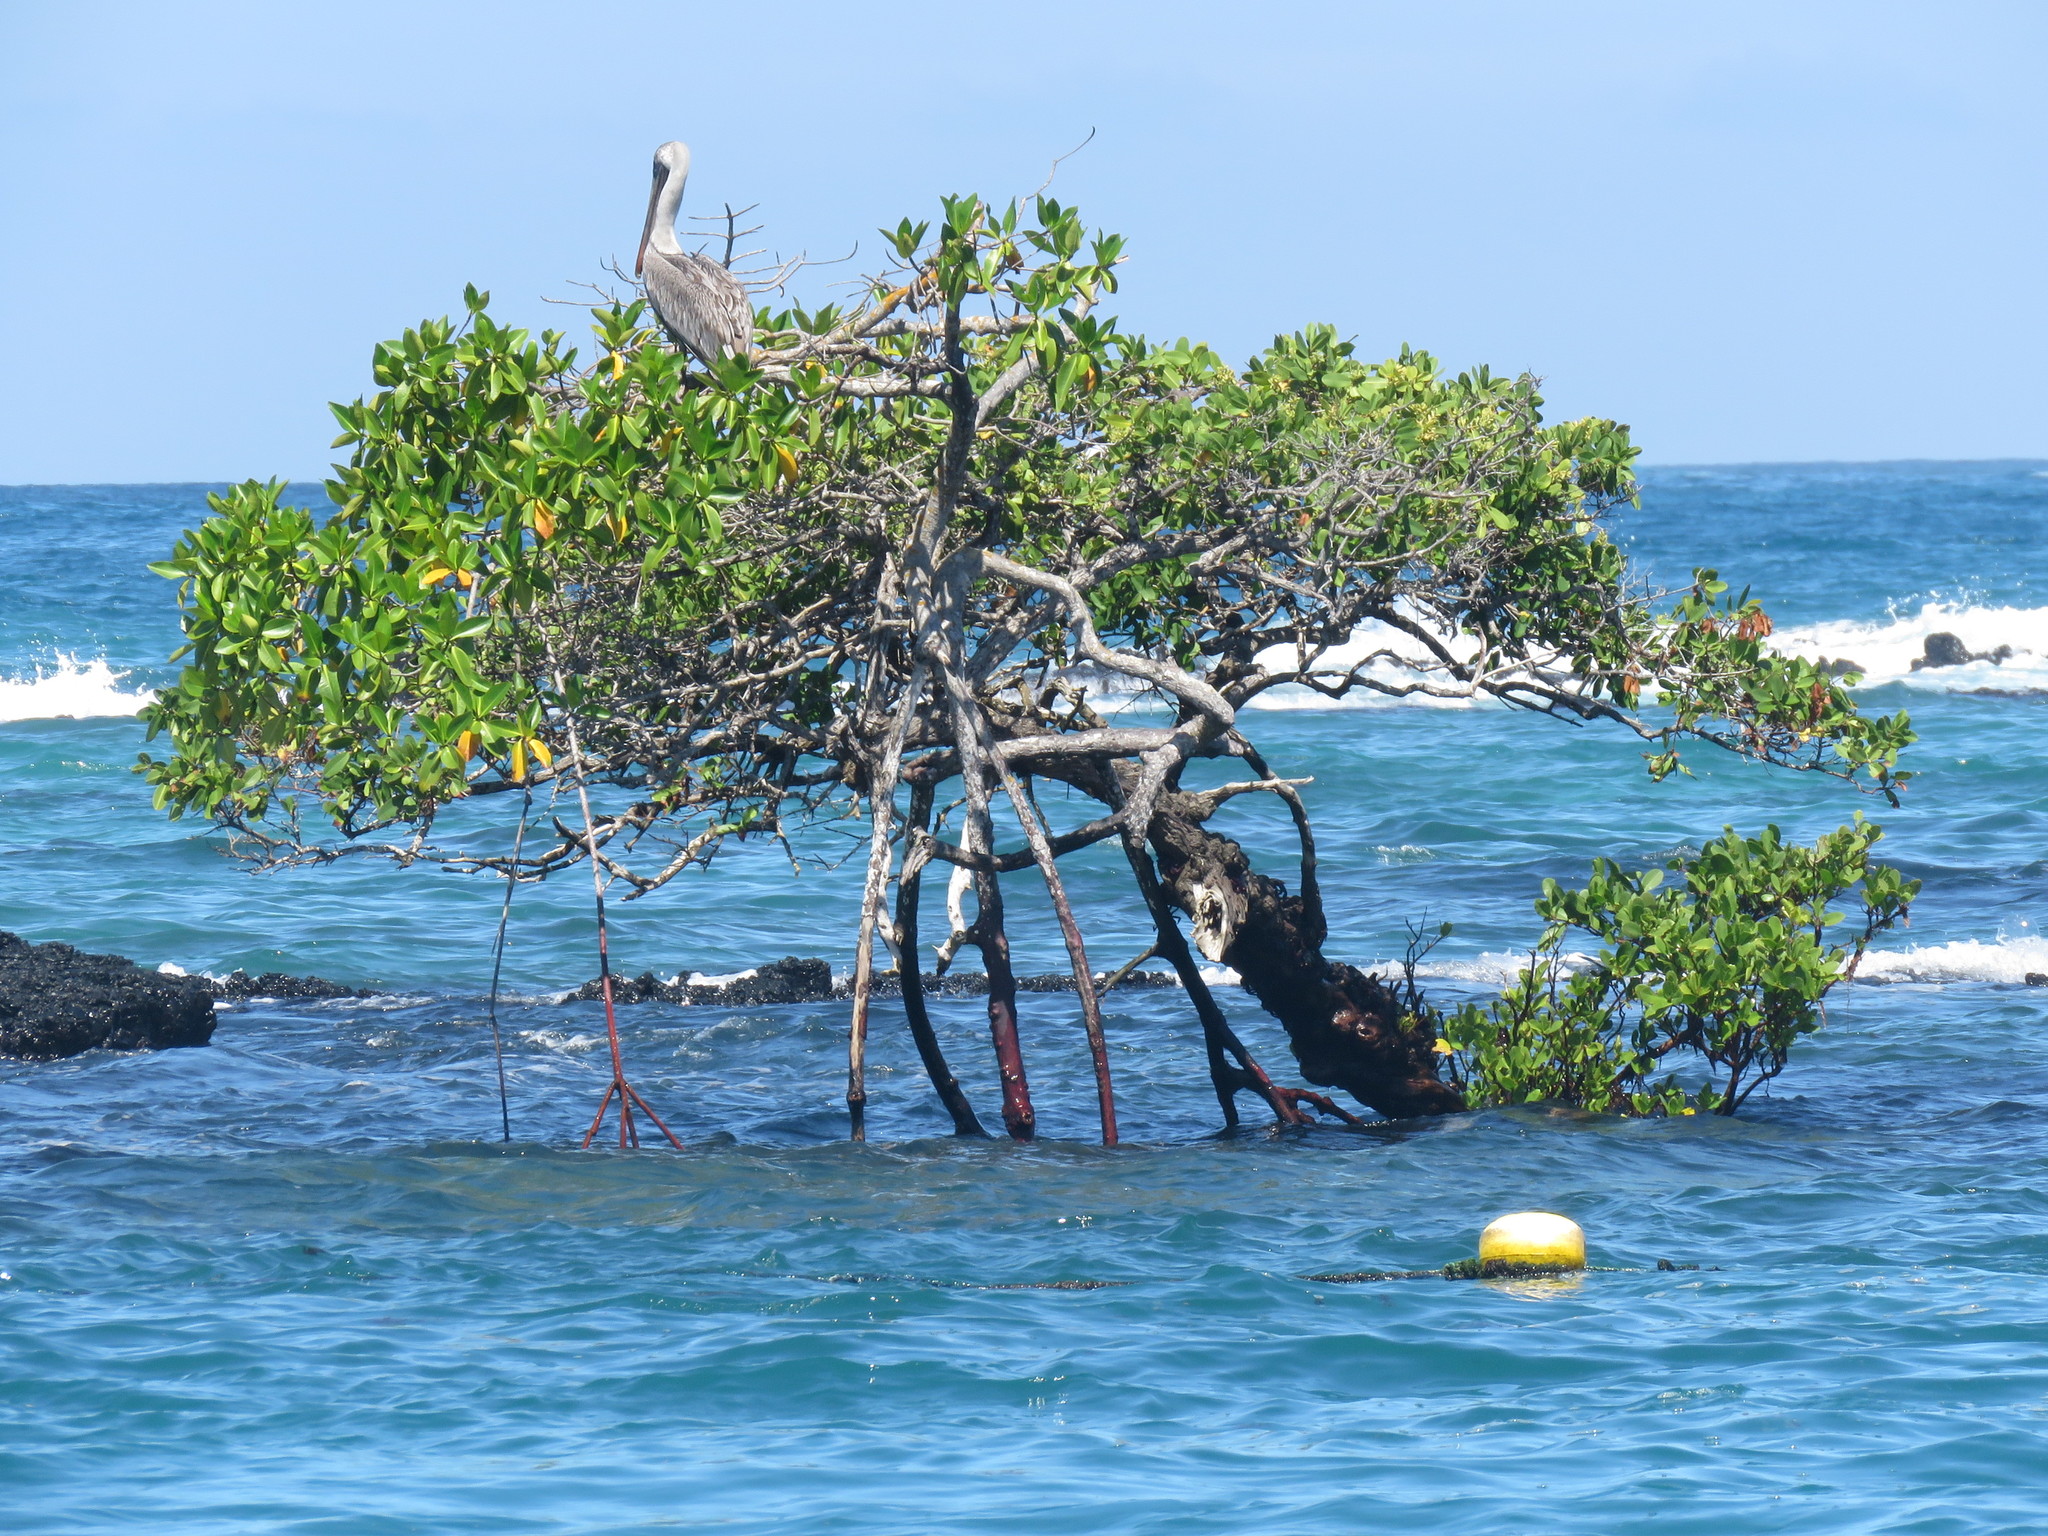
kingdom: Animalia
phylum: Chordata
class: Aves
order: Pelecaniformes
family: Pelecanidae
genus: Pelecanus
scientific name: Pelecanus occidentalis
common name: Brown pelican
